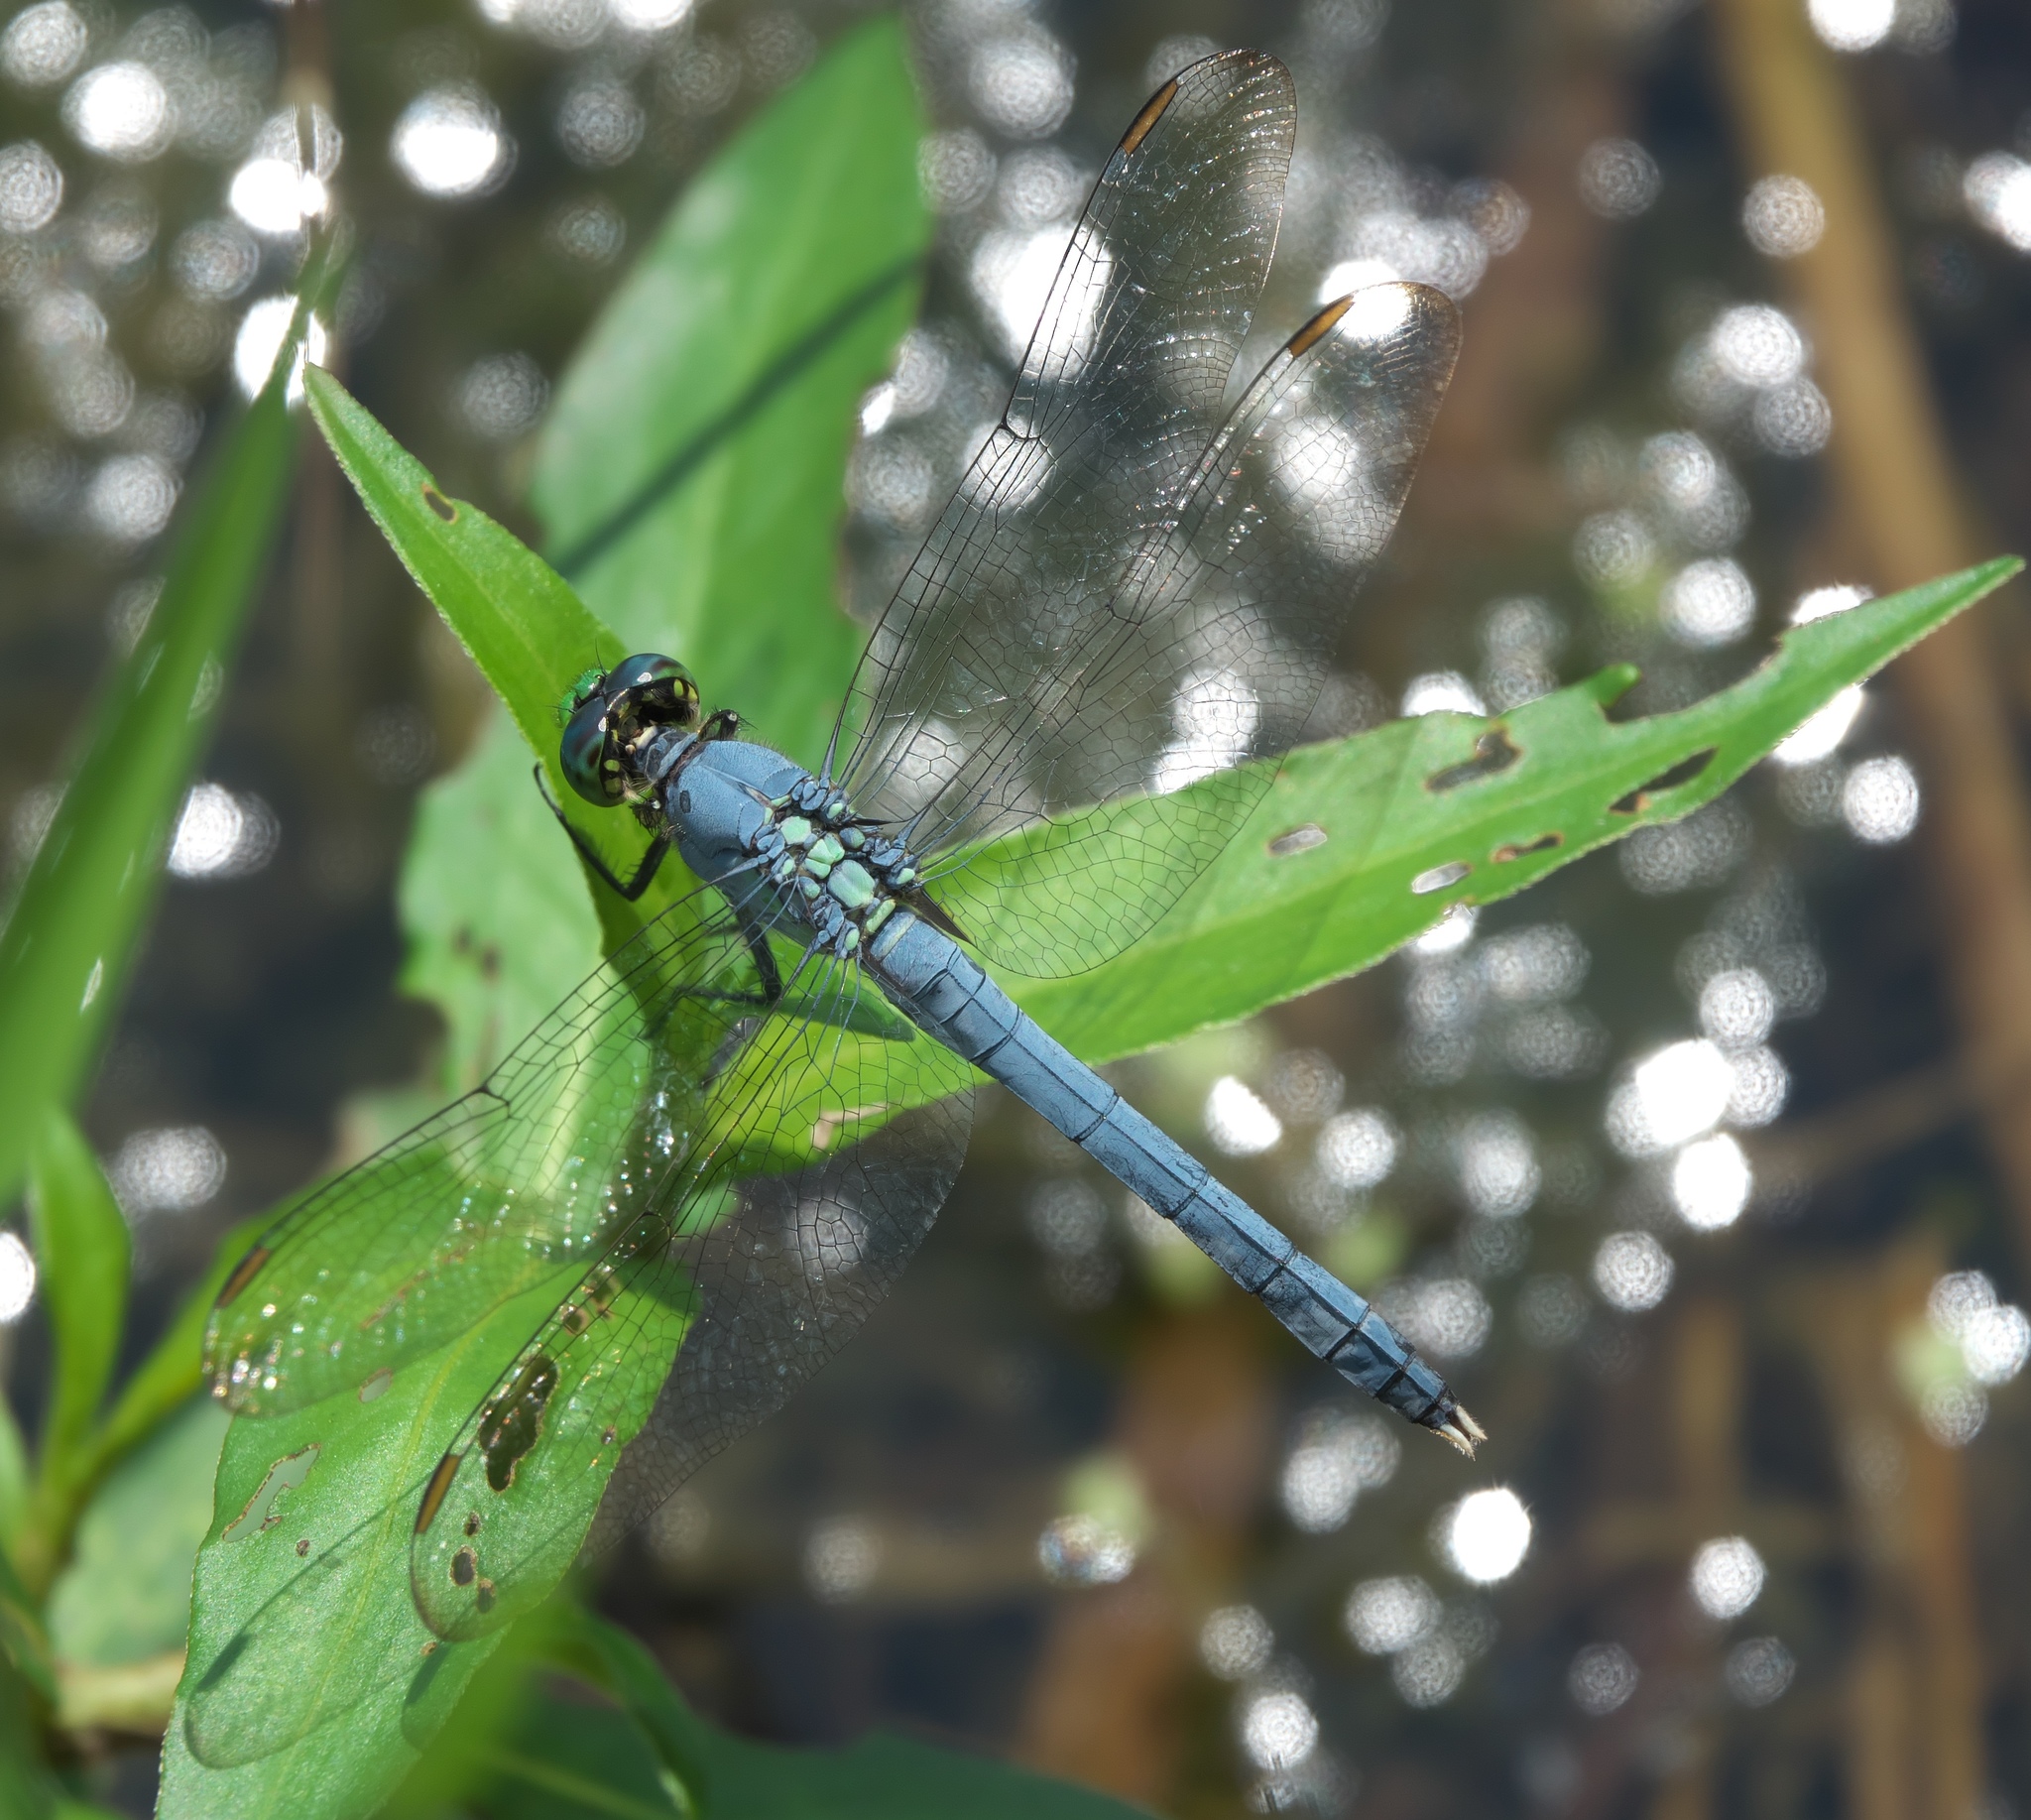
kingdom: Animalia
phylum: Arthropoda
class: Insecta
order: Odonata
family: Libellulidae
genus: Erythemis
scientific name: Erythemis simplicicollis
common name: Eastern pondhawk
